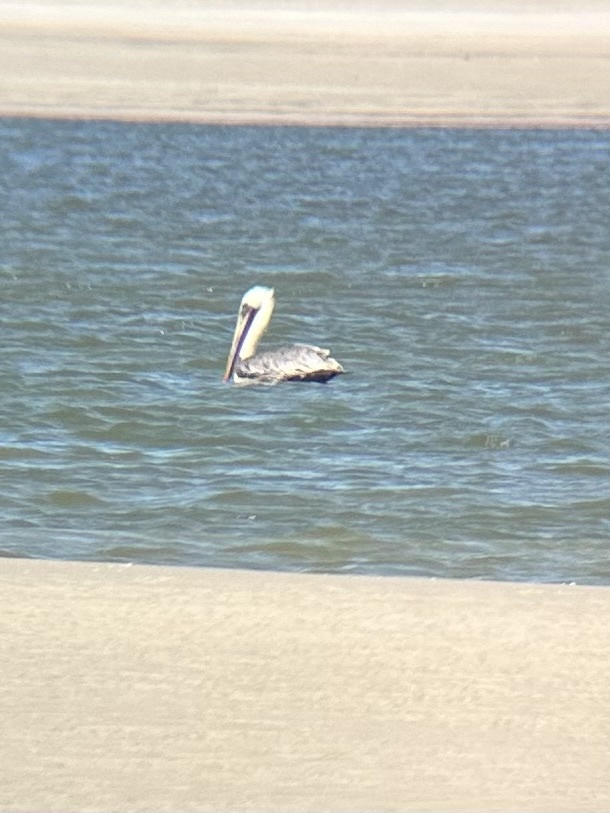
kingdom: Animalia
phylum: Chordata
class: Aves
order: Pelecaniformes
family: Pelecanidae
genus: Pelecanus
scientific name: Pelecanus occidentalis
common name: Brown pelican
